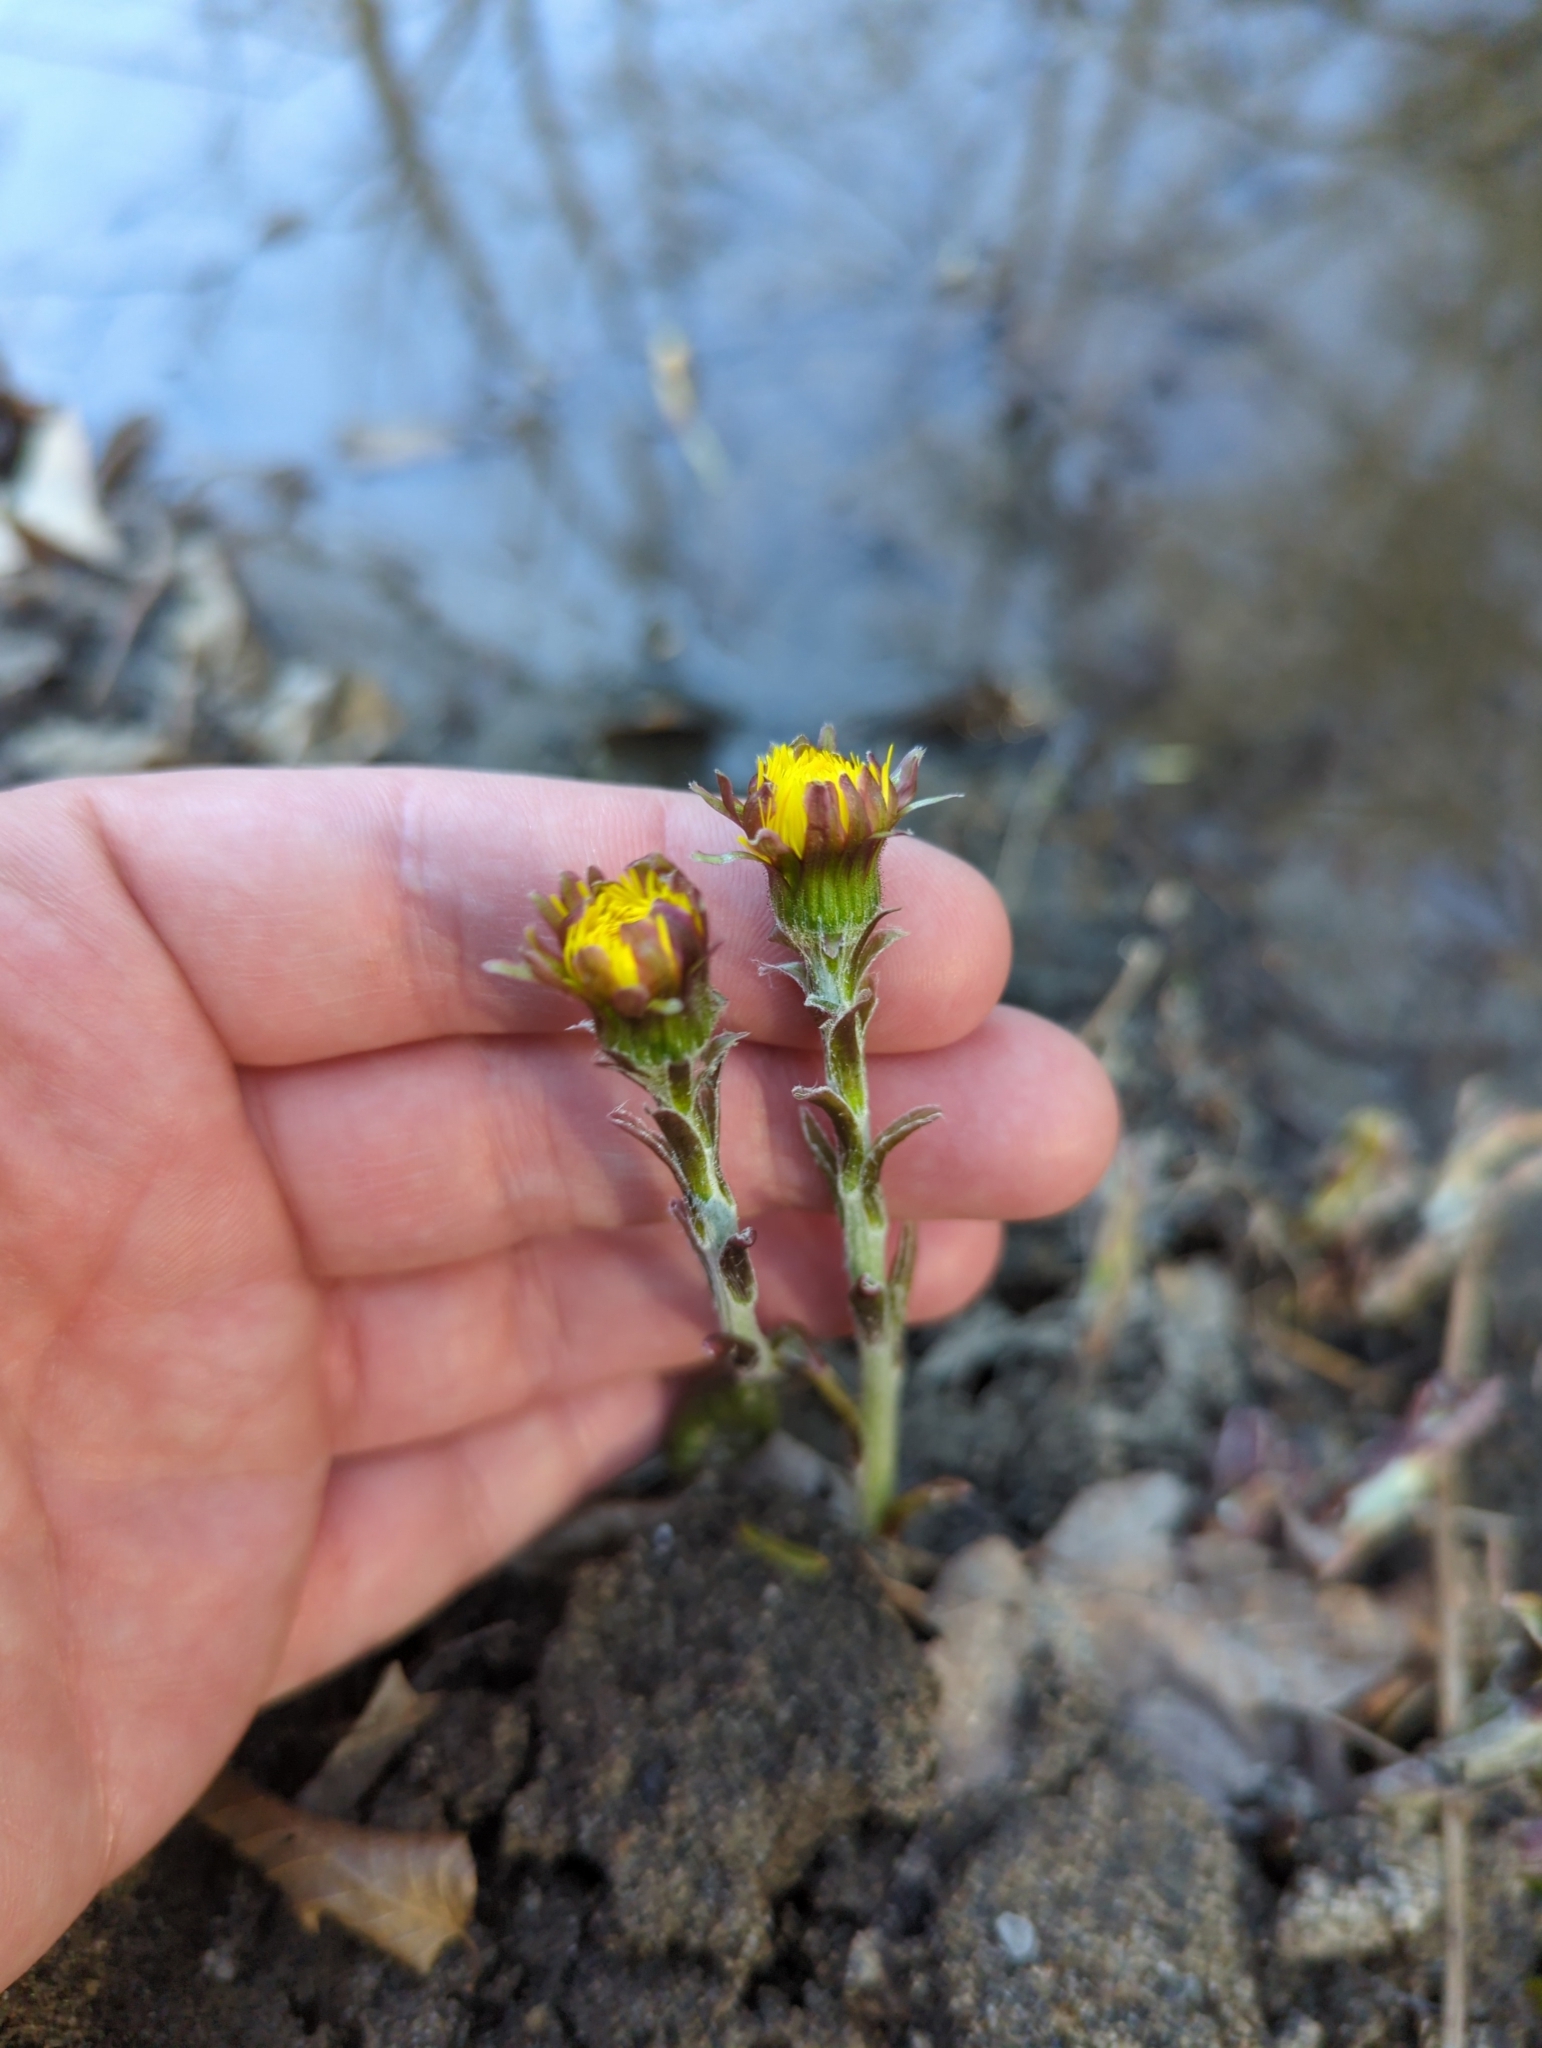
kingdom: Plantae
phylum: Tracheophyta
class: Magnoliopsida
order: Asterales
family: Asteraceae
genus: Tussilago
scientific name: Tussilago farfara
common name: Coltsfoot
